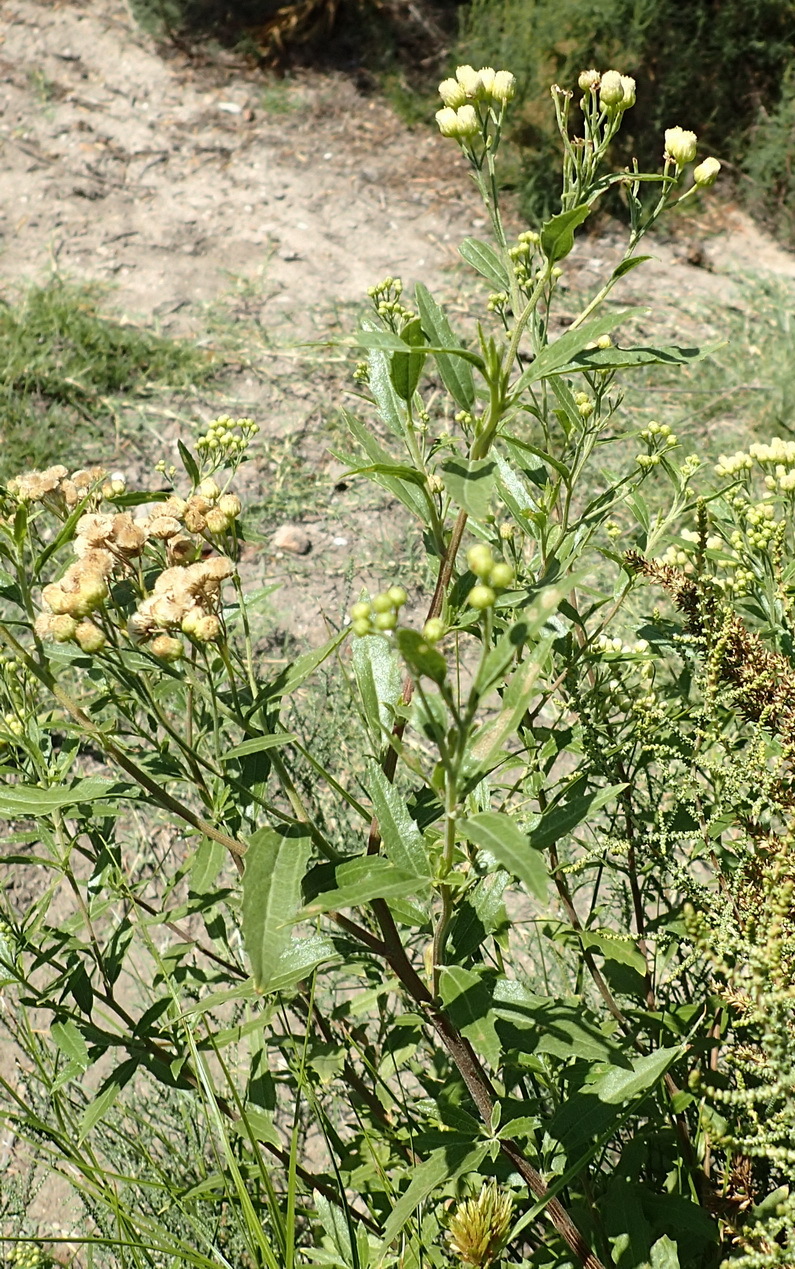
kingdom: Plantae
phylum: Tracheophyta
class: Magnoliopsida
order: Asterales
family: Asteraceae
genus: Nidorella
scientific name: Nidorella ivifolia
